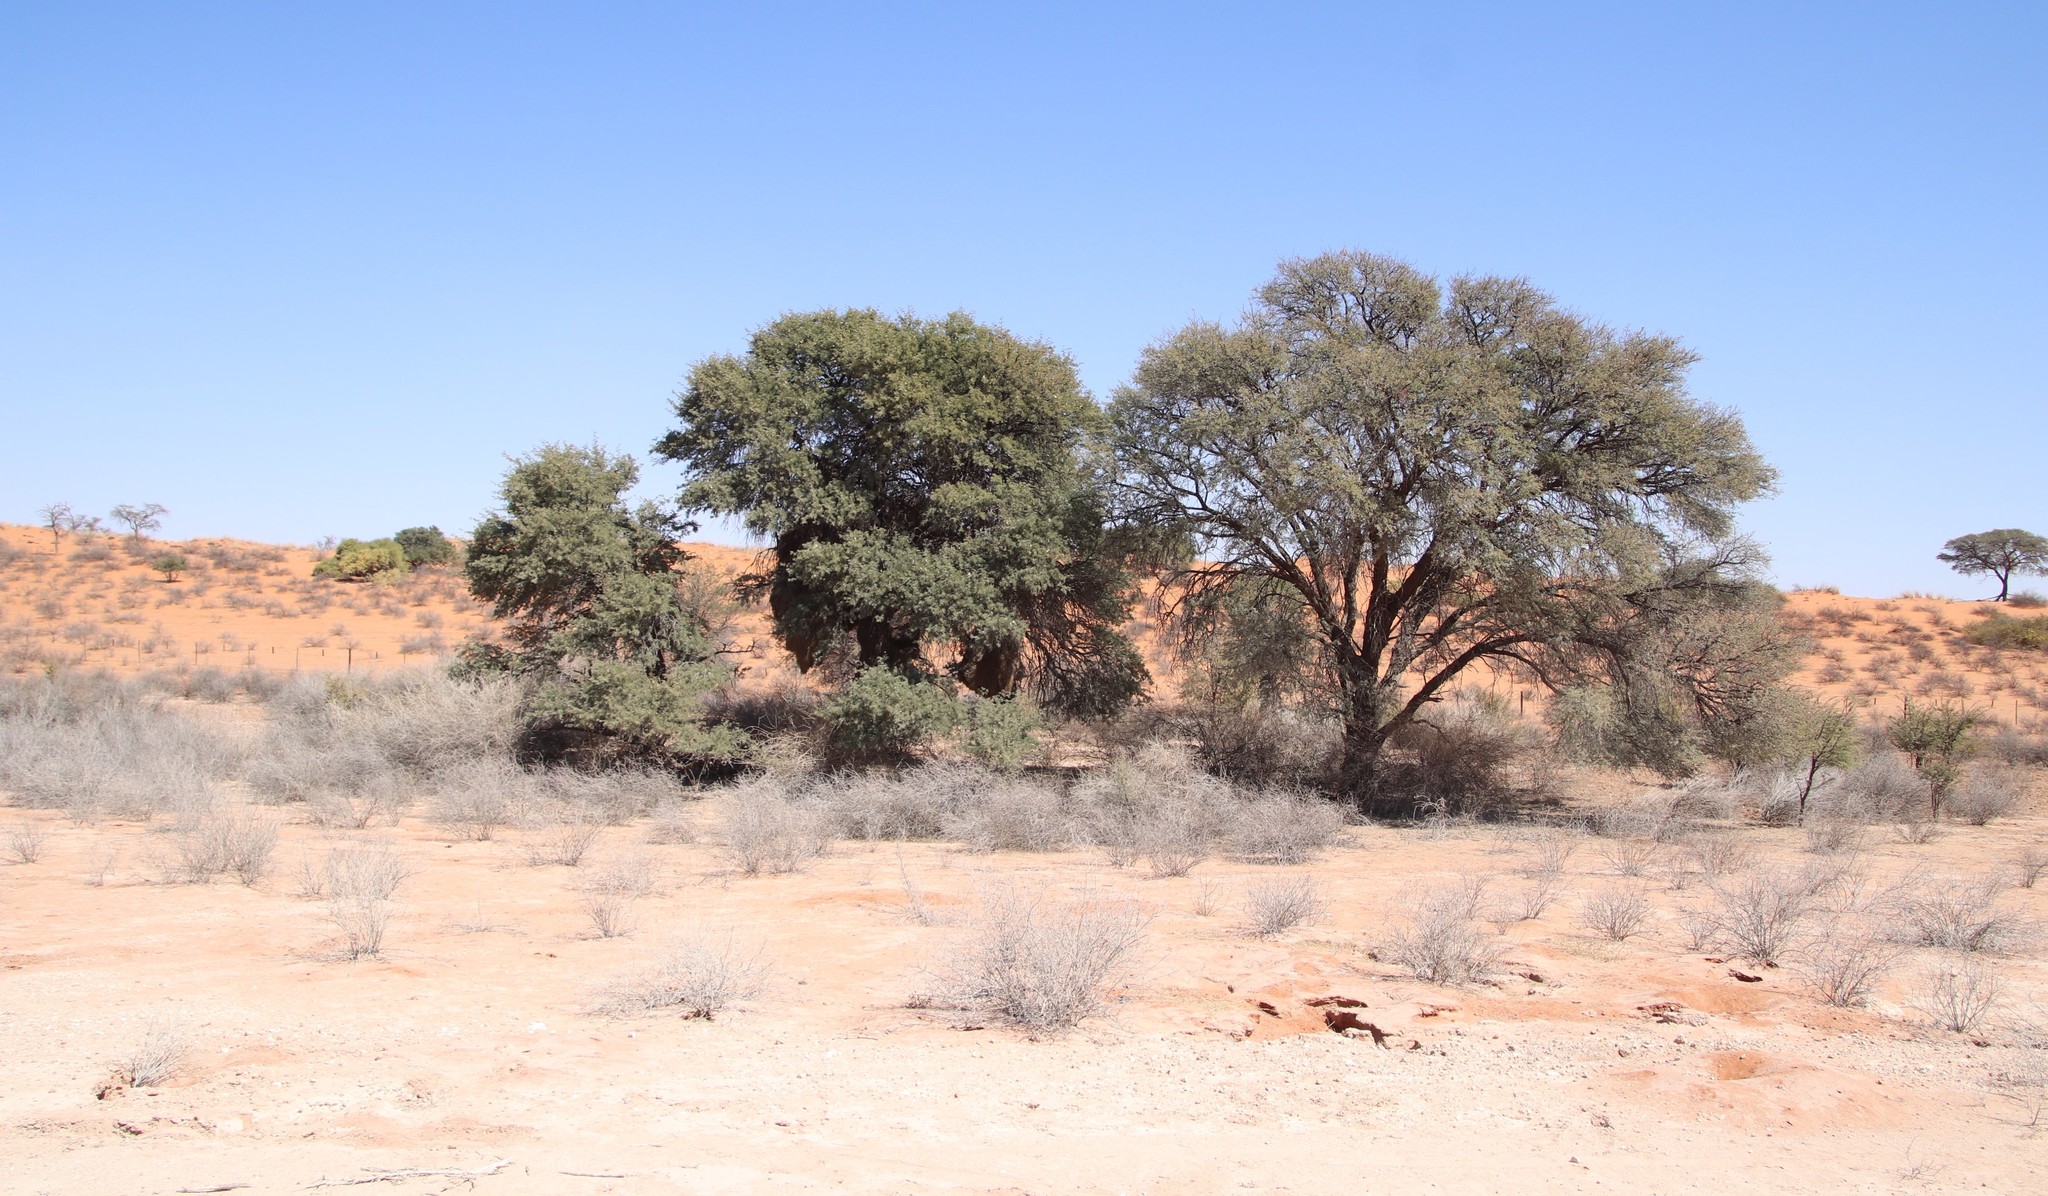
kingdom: Plantae
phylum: Tracheophyta
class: Magnoliopsida
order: Fabales
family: Fabaceae
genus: Vachellia
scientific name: Vachellia erioloba
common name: Camel thorn
